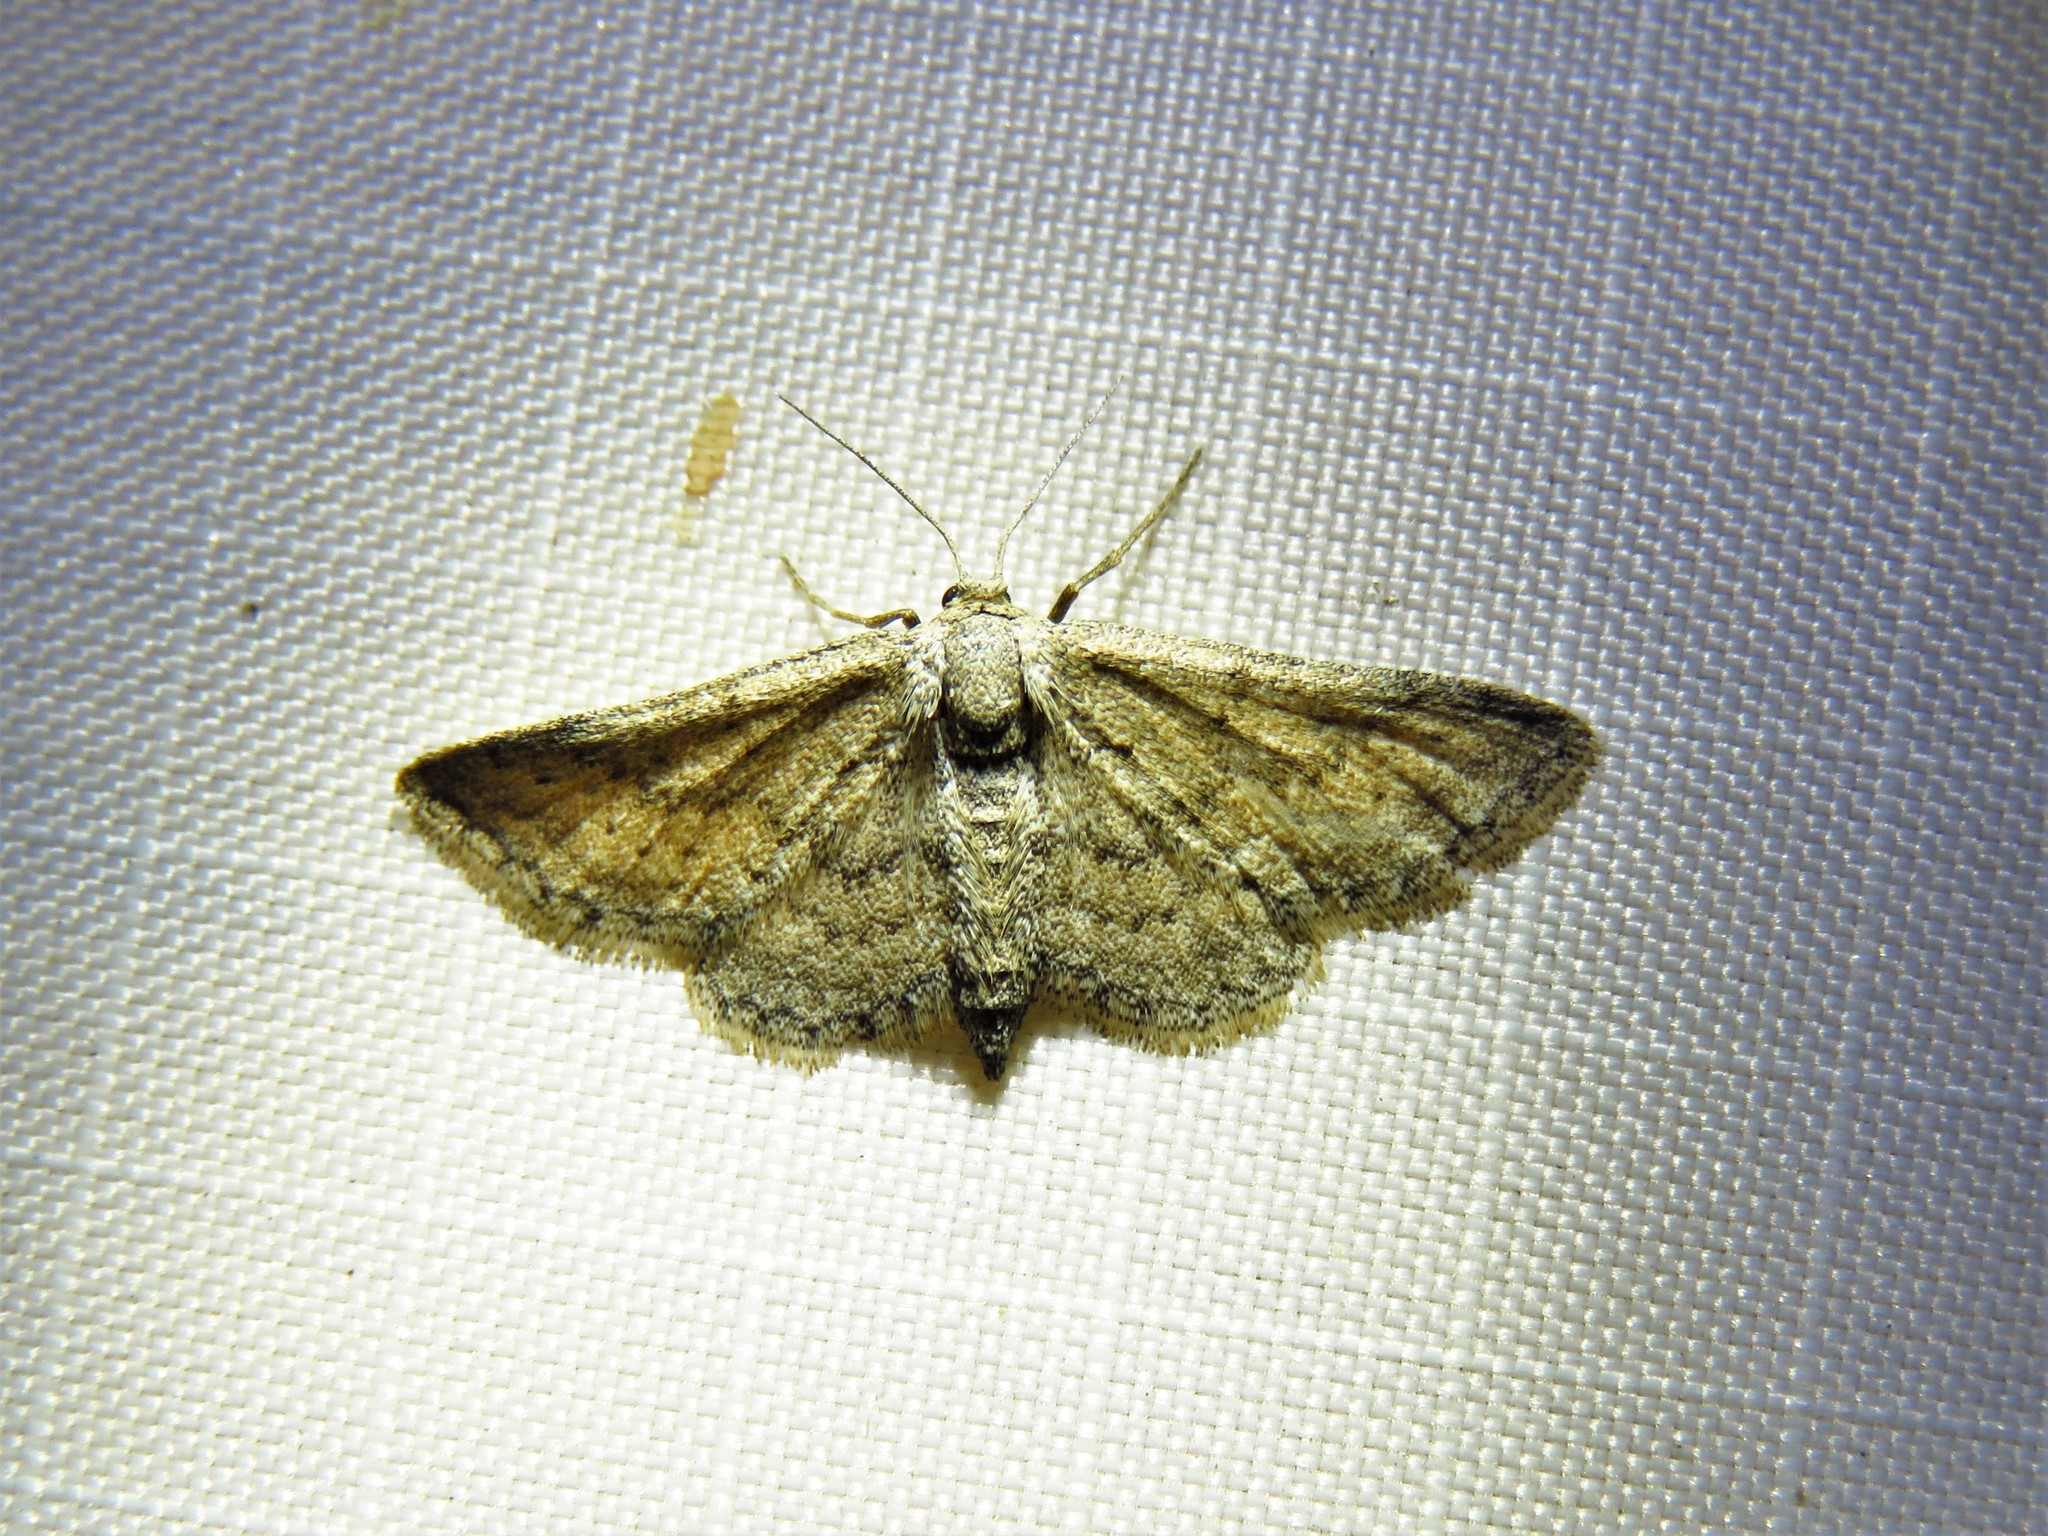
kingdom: Animalia
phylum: Arthropoda
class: Insecta
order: Lepidoptera
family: Geometridae
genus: Lobocleta
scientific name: Lobocleta ossularia
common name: Drab brown wave
